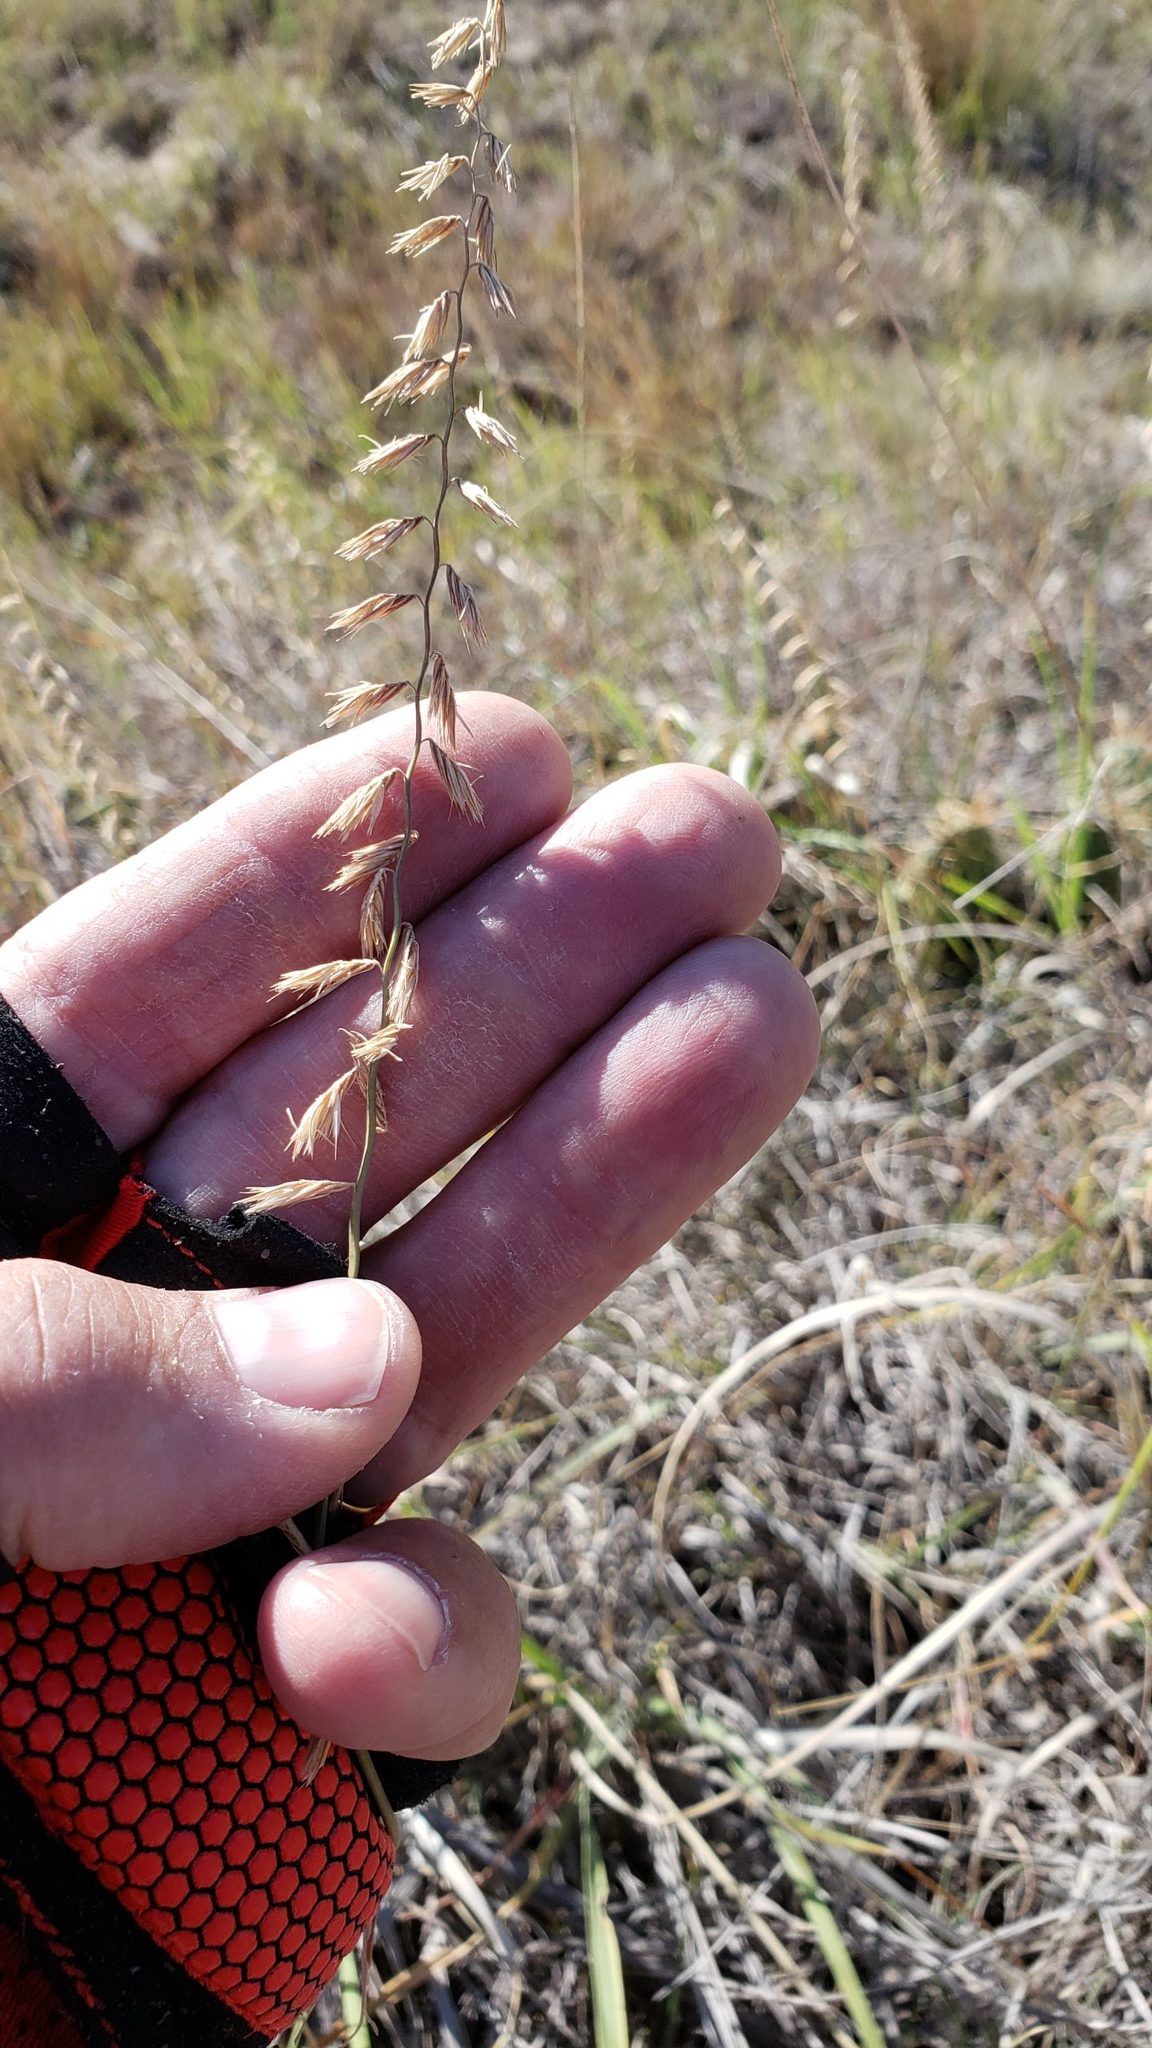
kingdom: Plantae
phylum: Tracheophyta
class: Liliopsida
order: Poales
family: Poaceae
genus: Bouteloua
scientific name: Bouteloua curtipendula
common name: Side-oats grama
